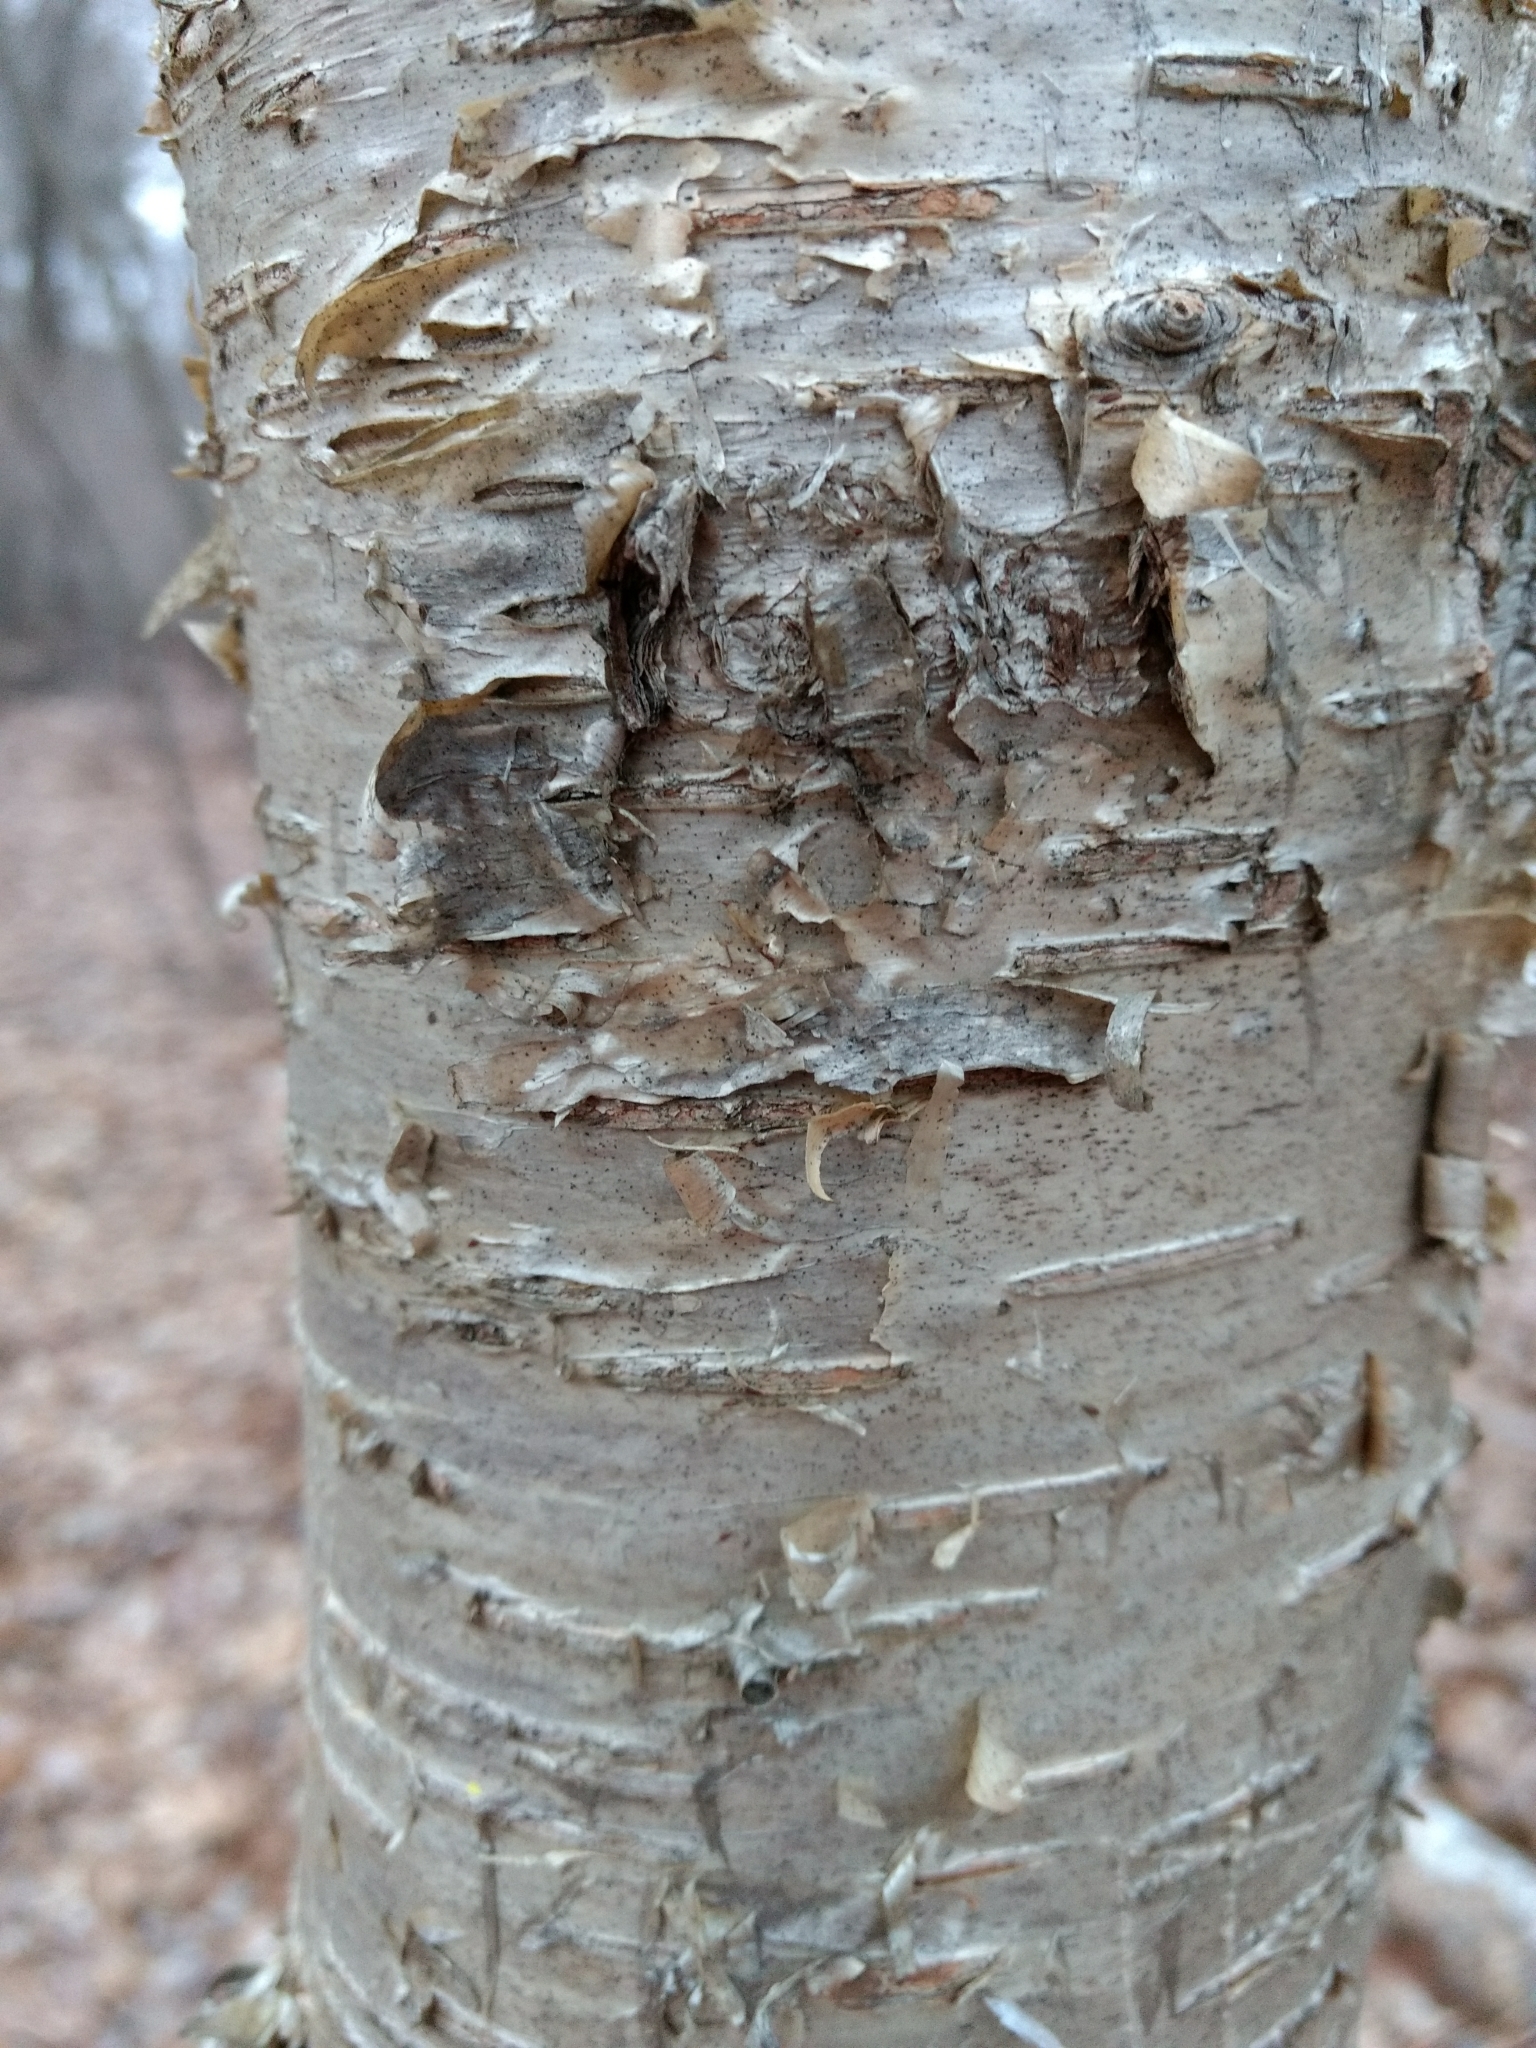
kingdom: Plantae
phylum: Tracheophyta
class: Magnoliopsida
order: Fagales
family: Betulaceae
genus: Betula
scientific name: Betula alleghaniensis
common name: Yellow birch
